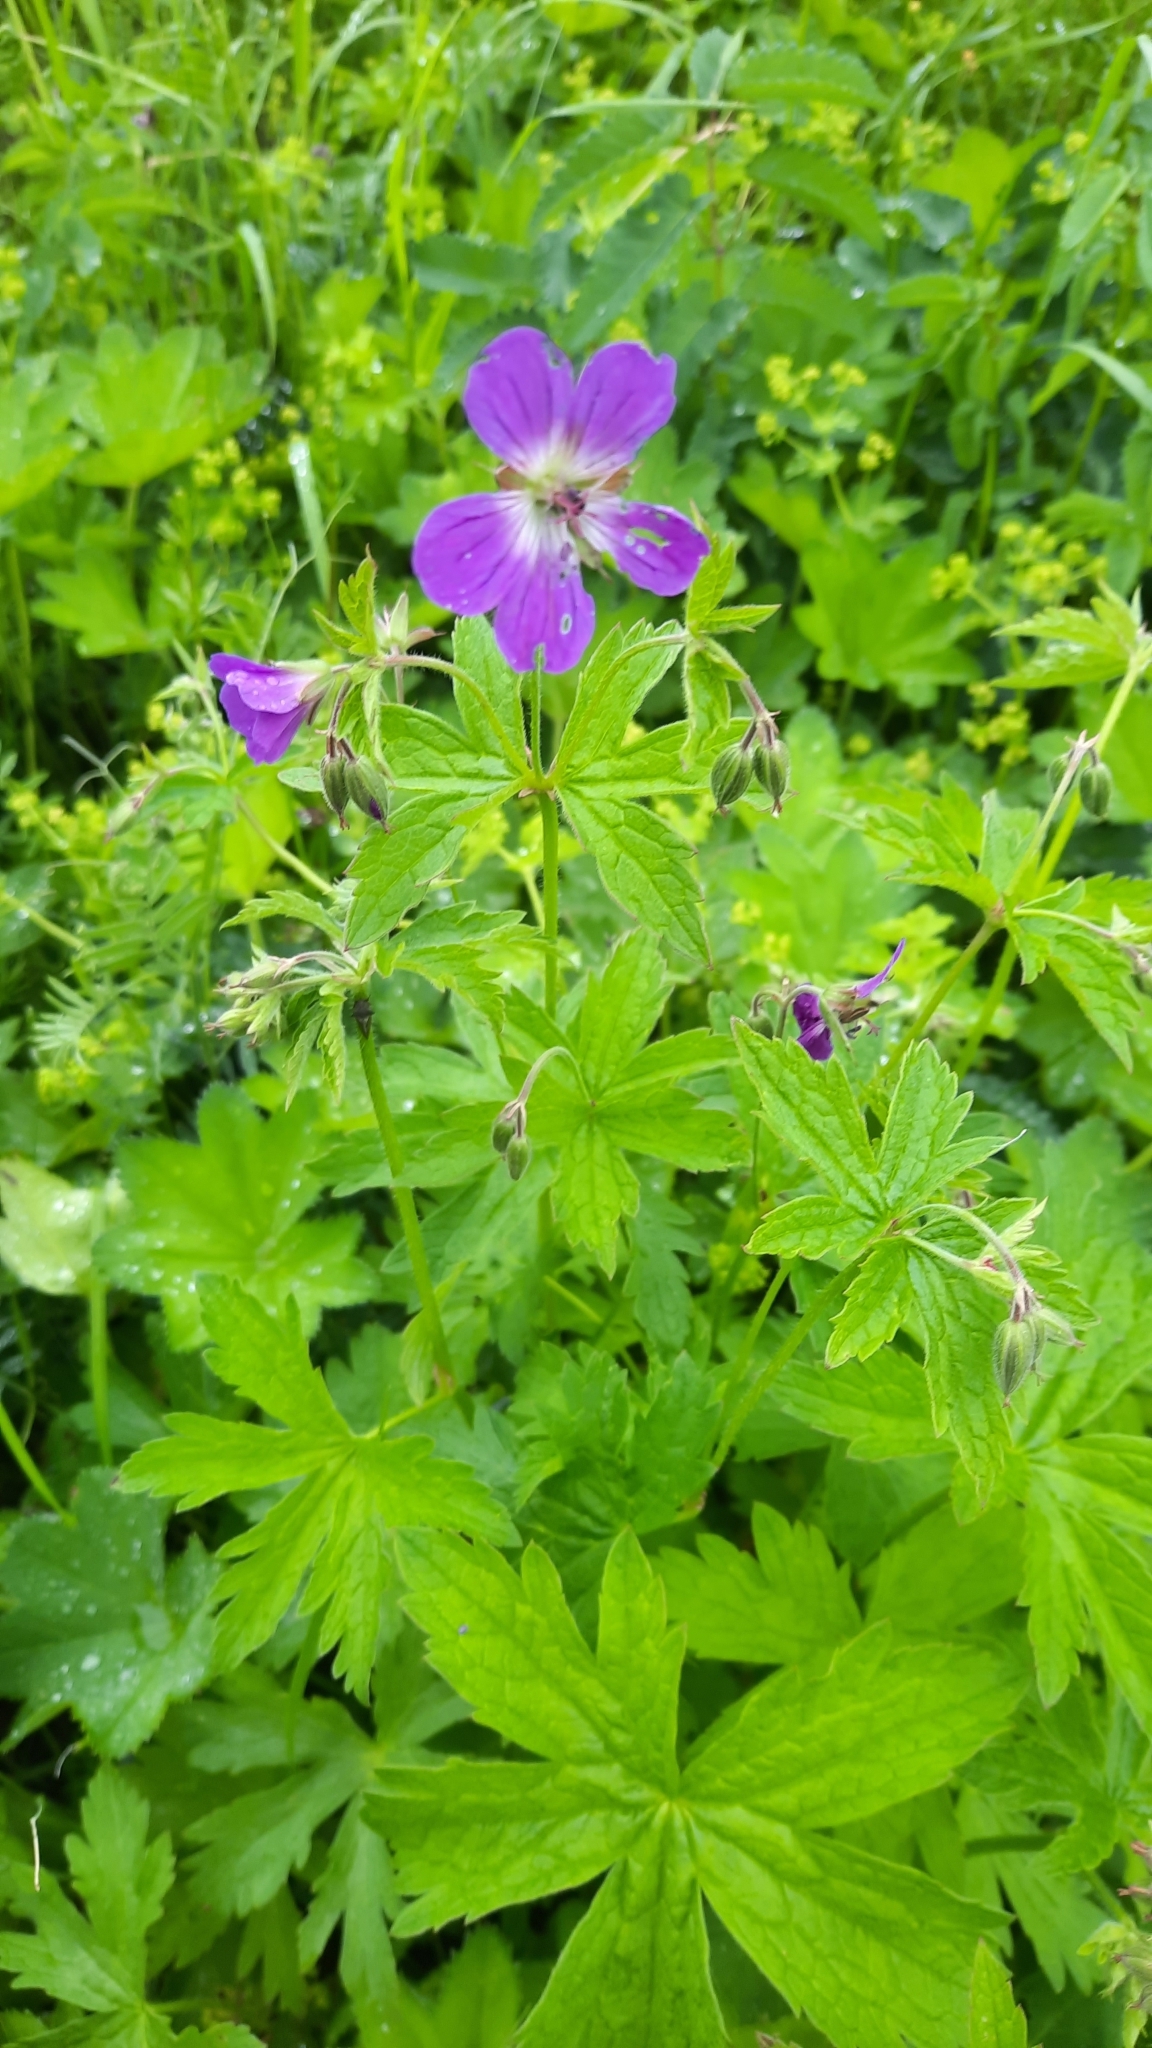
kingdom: Plantae
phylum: Tracheophyta
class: Magnoliopsida
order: Geraniales
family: Geraniaceae
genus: Geranium
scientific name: Geranium sylvaticum
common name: Wood crane's-bill
